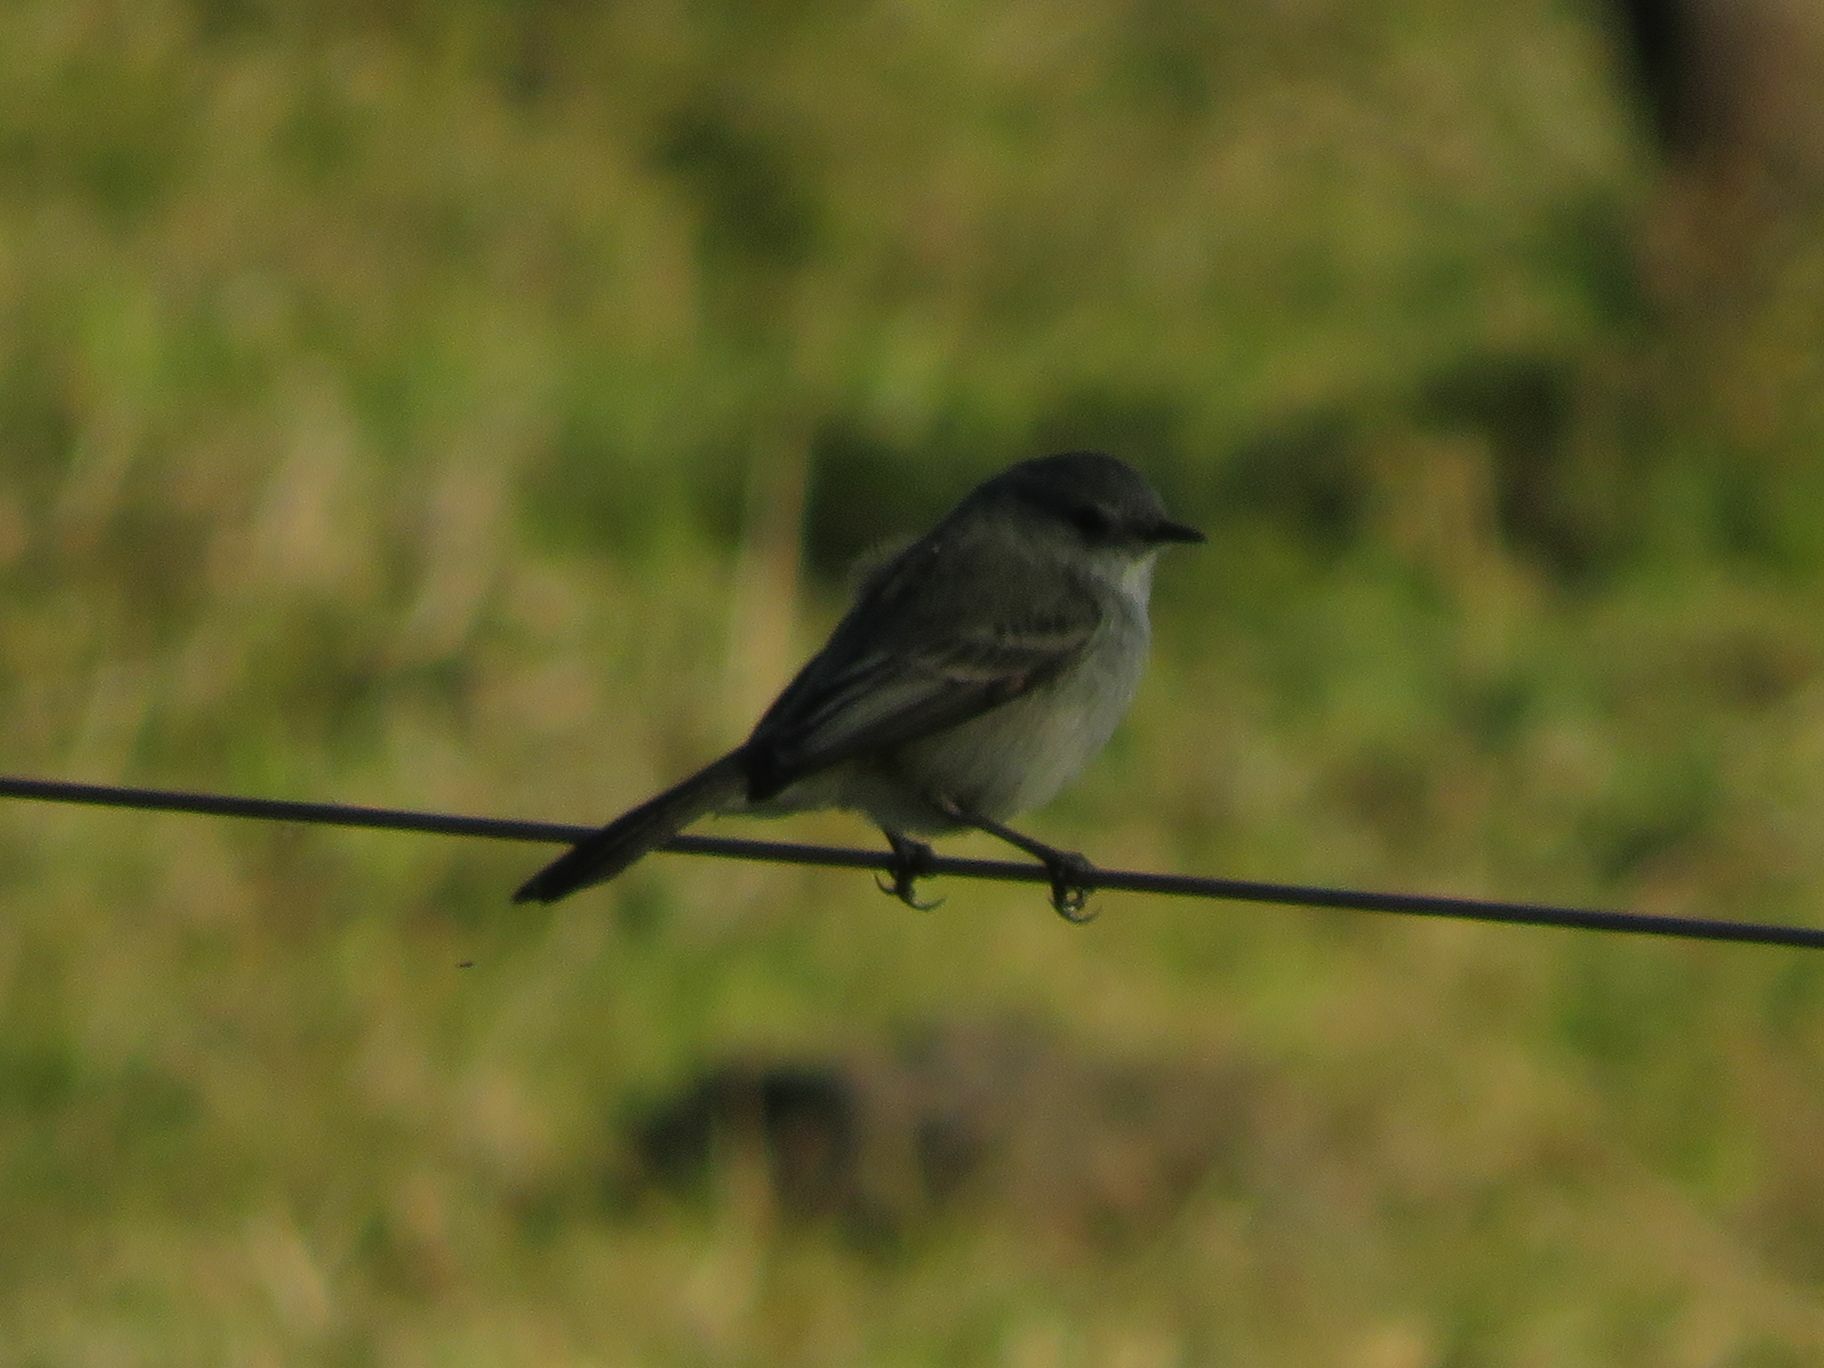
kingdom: Animalia
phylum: Chordata
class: Aves
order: Passeriformes
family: Tyrannidae
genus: Serpophaga
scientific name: Serpophaga nigricans
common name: Sooty tyrannulet
